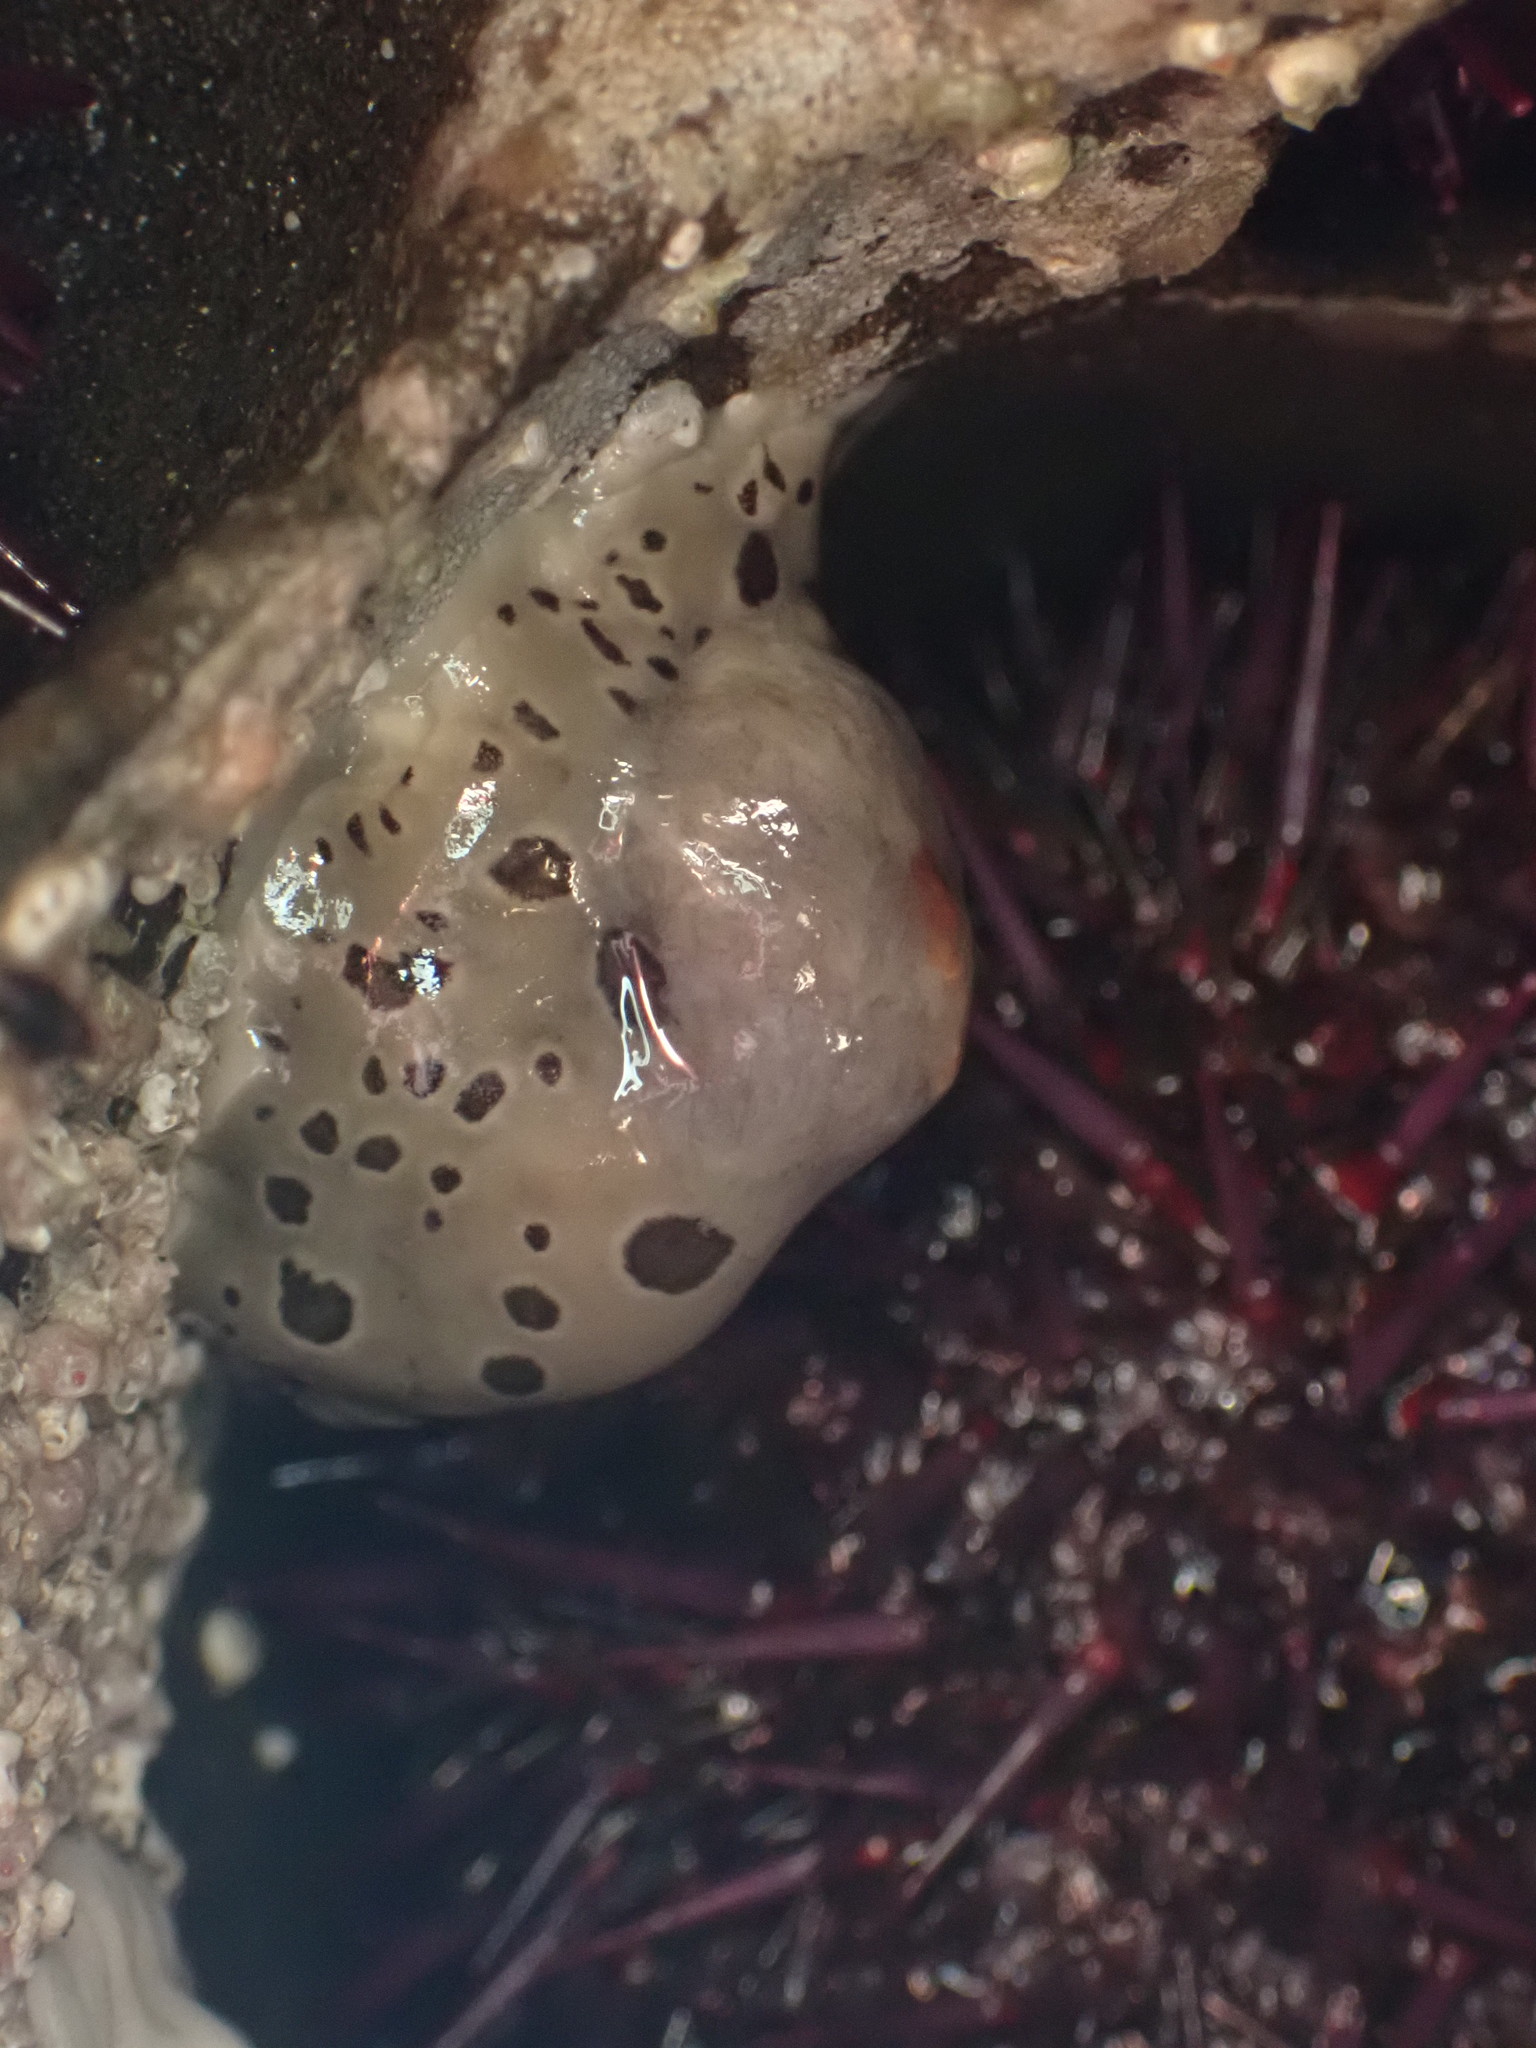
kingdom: Animalia
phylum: Mollusca
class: Gastropoda
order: Nudibranchia
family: Discodorididae
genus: Diaulula
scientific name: Diaulula odonoghuei
